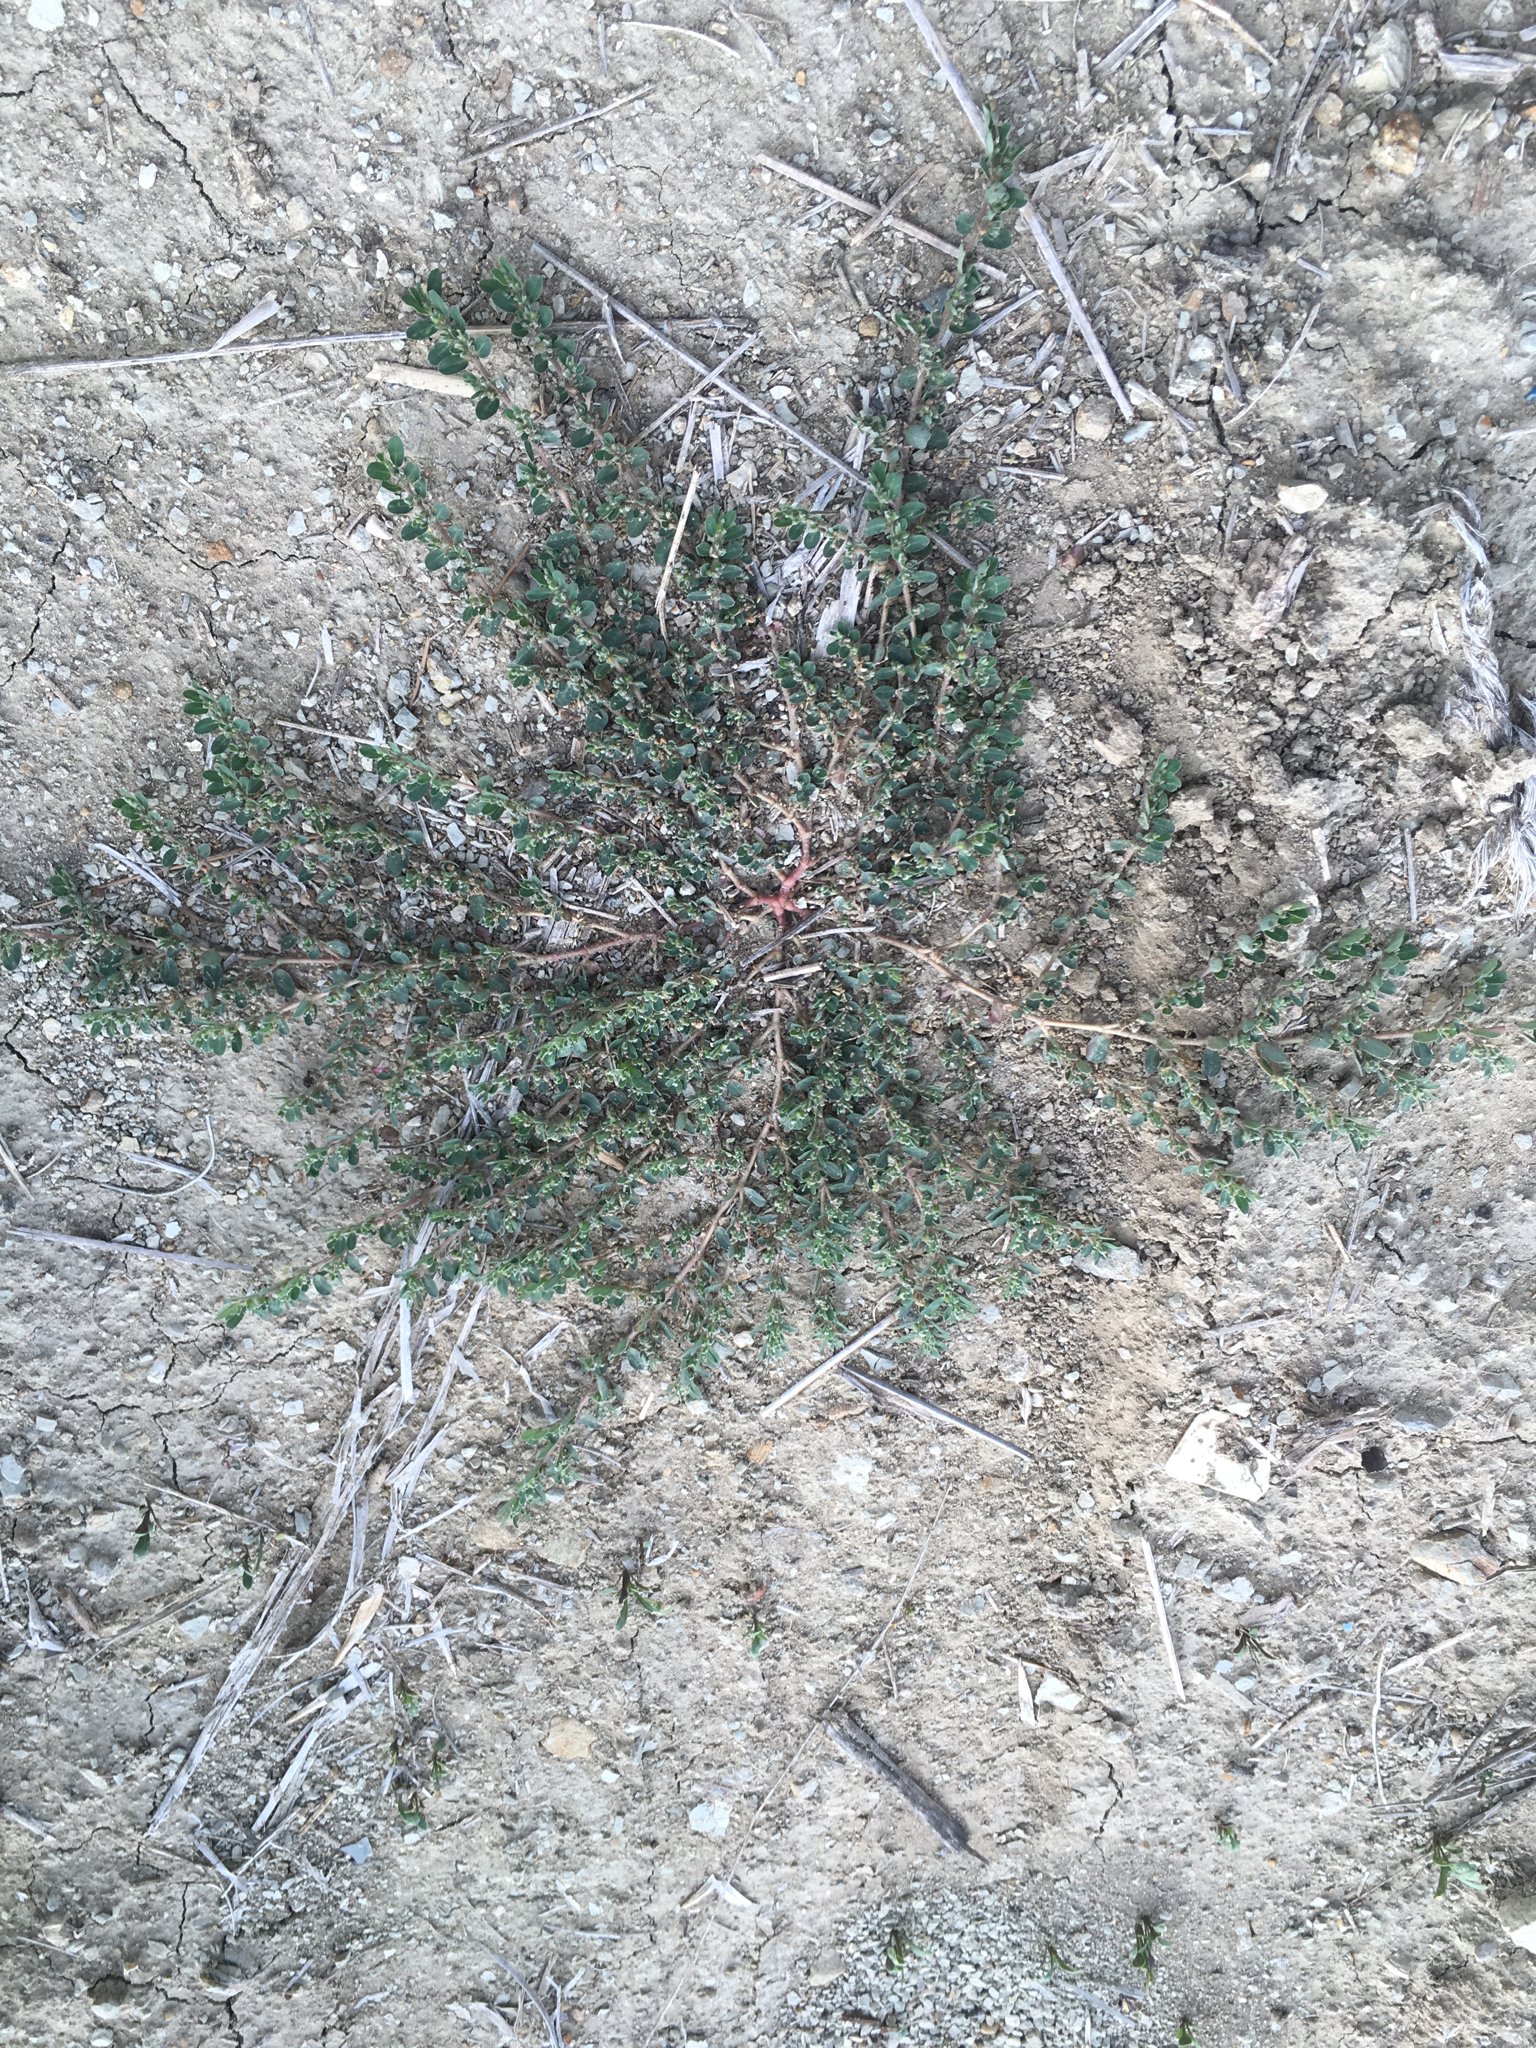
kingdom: Plantae
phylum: Tracheophyta
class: Magnoliopsida
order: Malpighiales
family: Euphorbiaceae
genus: Euphorbia
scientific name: Euphorbia prostrata
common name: Prostrate sandmat
